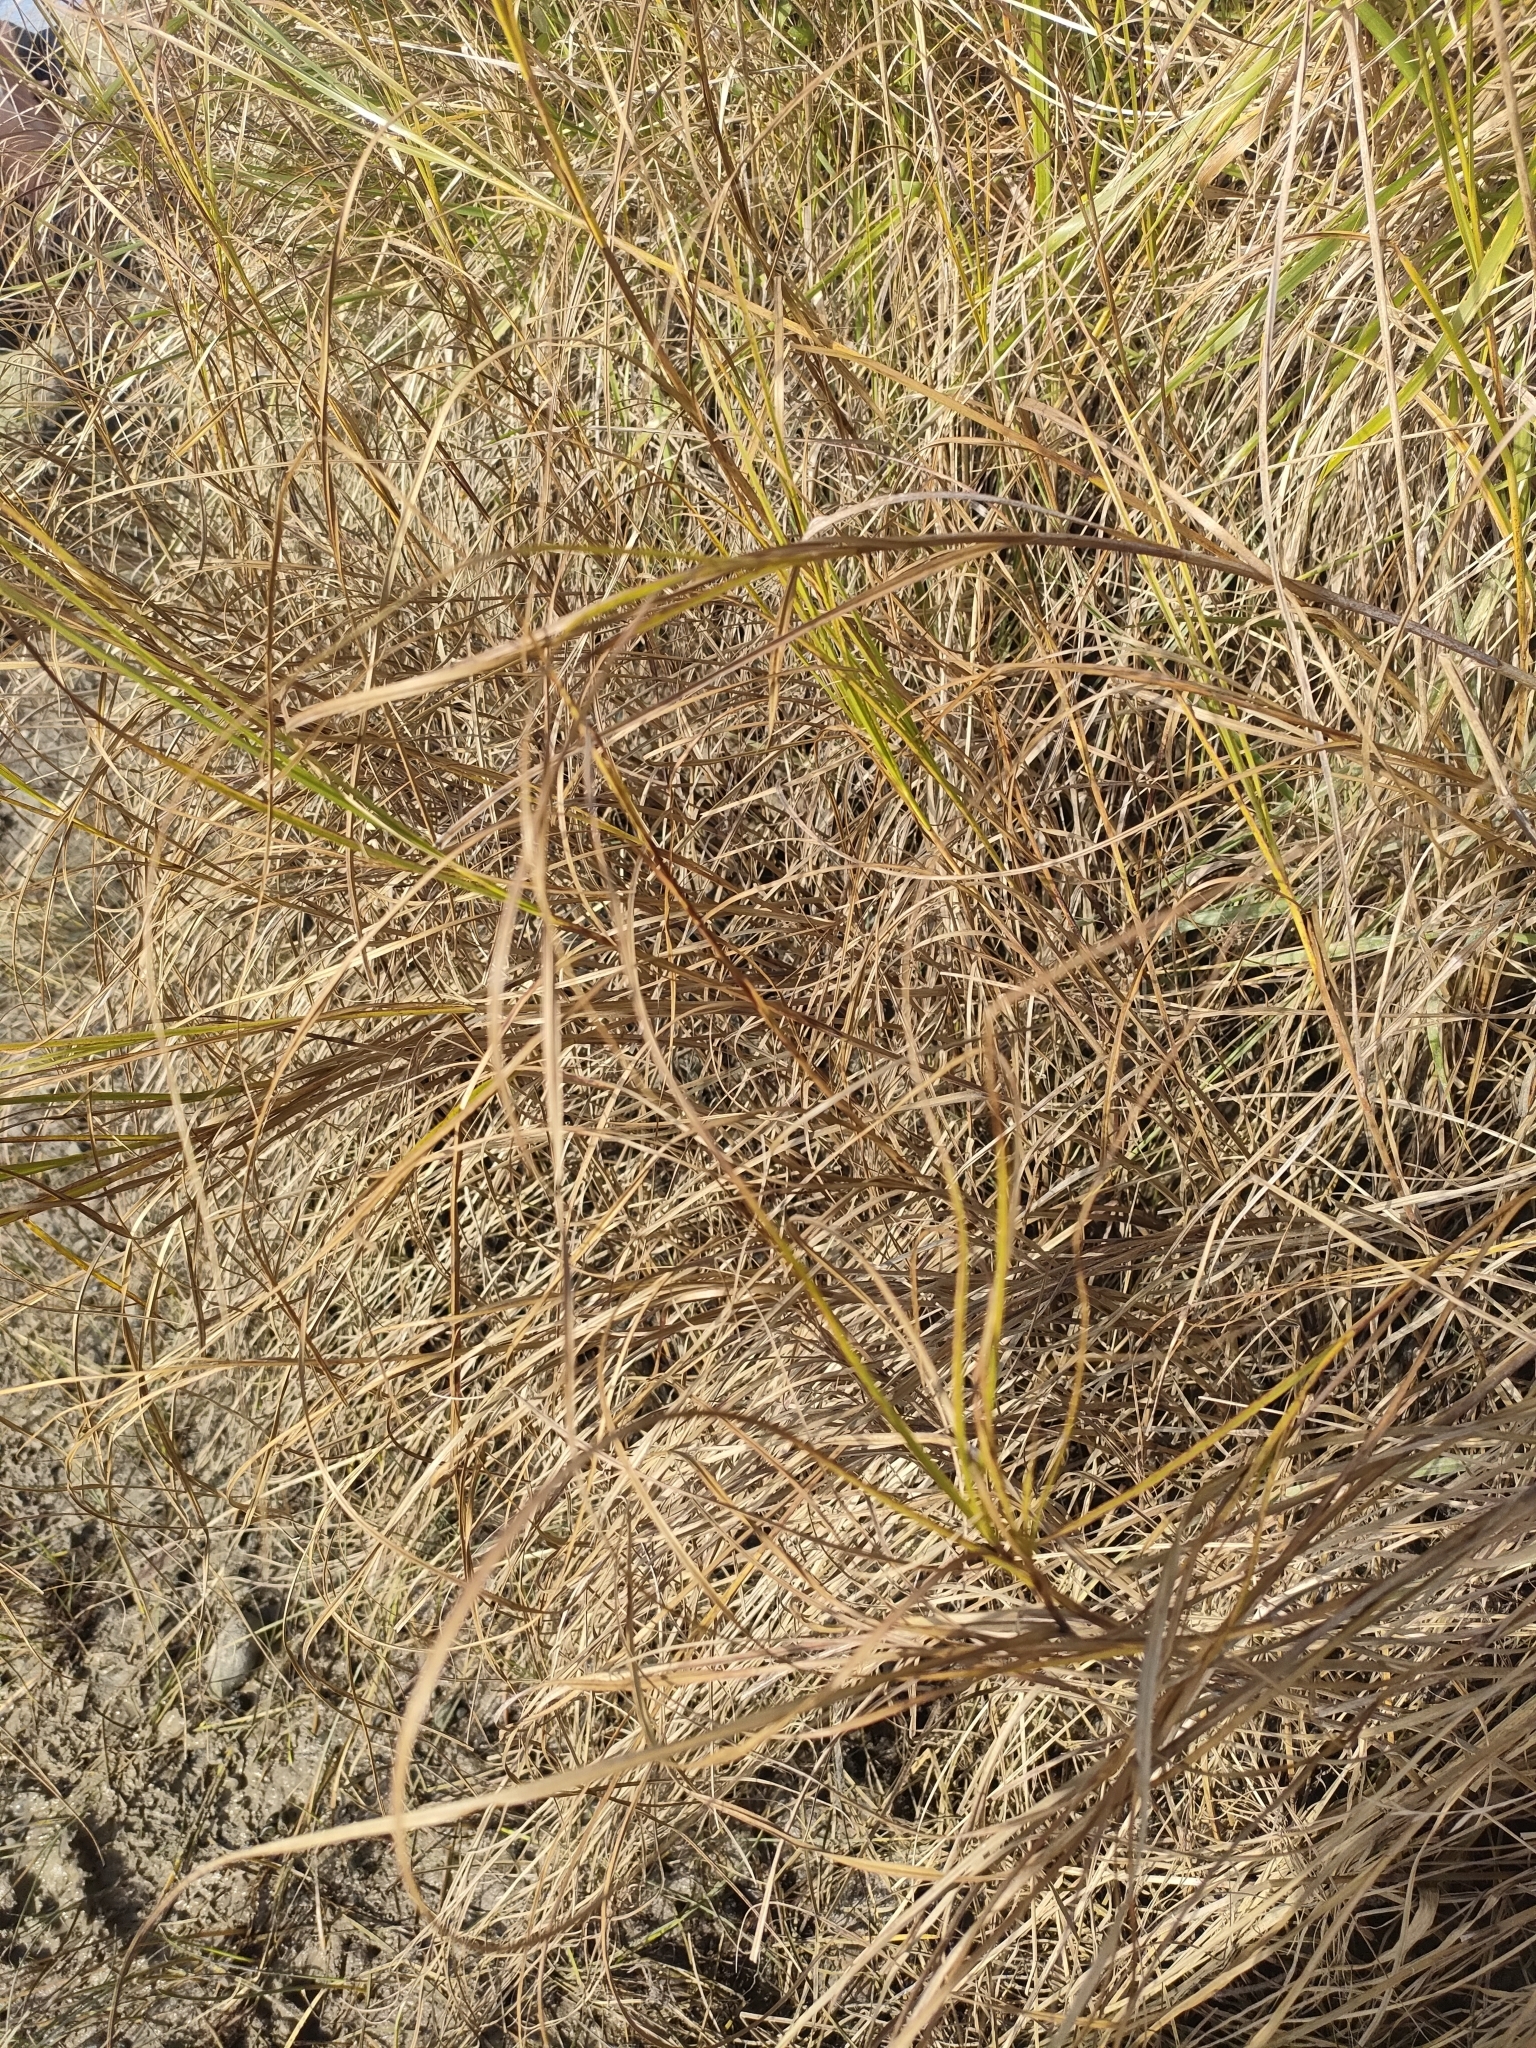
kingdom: Plantae
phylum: Tracheophyta
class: Liliopsida
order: Poales
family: Cyperaceae
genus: Bolboschoenus
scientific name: Bolboschoenus caldwellii
